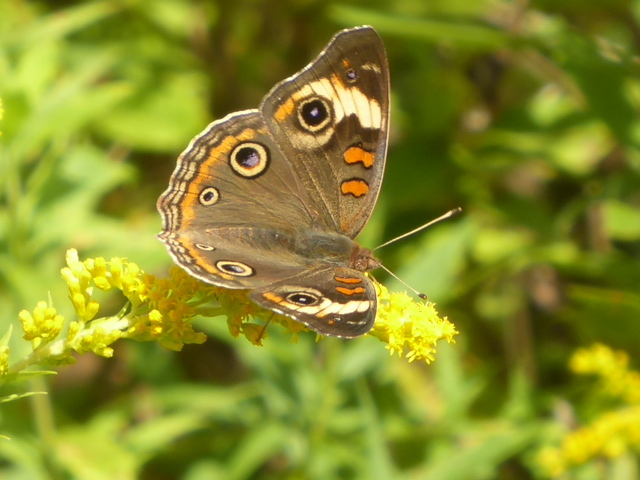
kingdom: Animalia
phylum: Arthropoda
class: Insecta
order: Lepidoptera
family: Nymphalidae
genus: Junonia
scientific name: Junonia coenia
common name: Common buckeye
